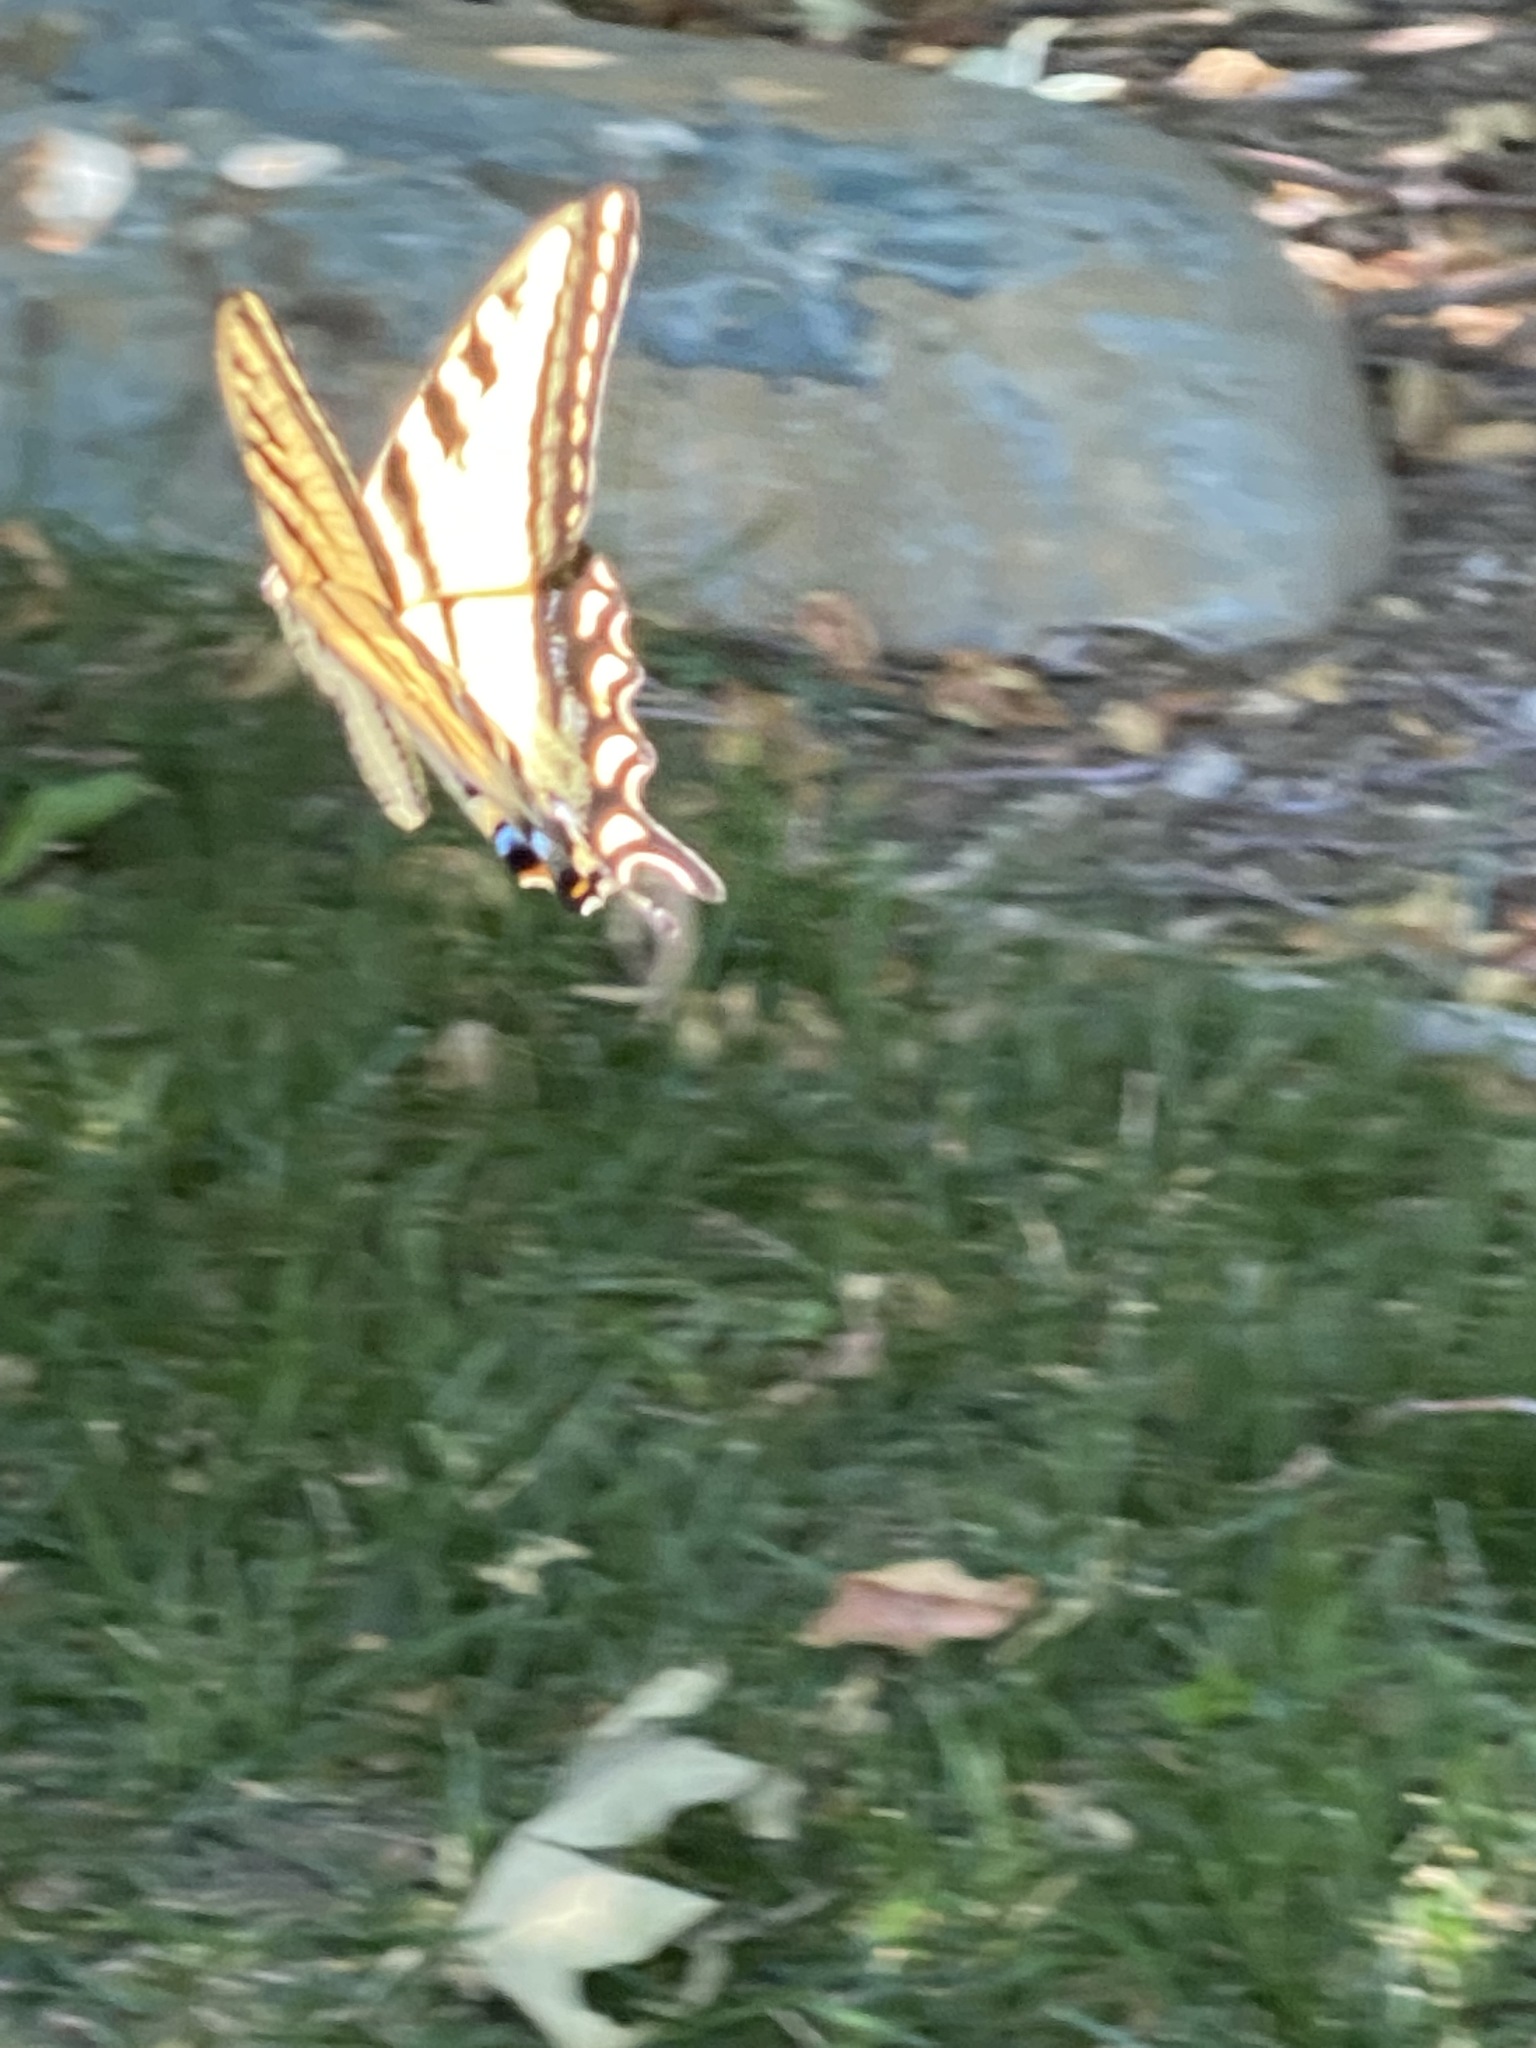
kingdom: Animalia
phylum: Arthropoda
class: Insecta
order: Lepidoptera
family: Papilionidae
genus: Papilio
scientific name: Papilio rutulus
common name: Western tiger swallowtail
